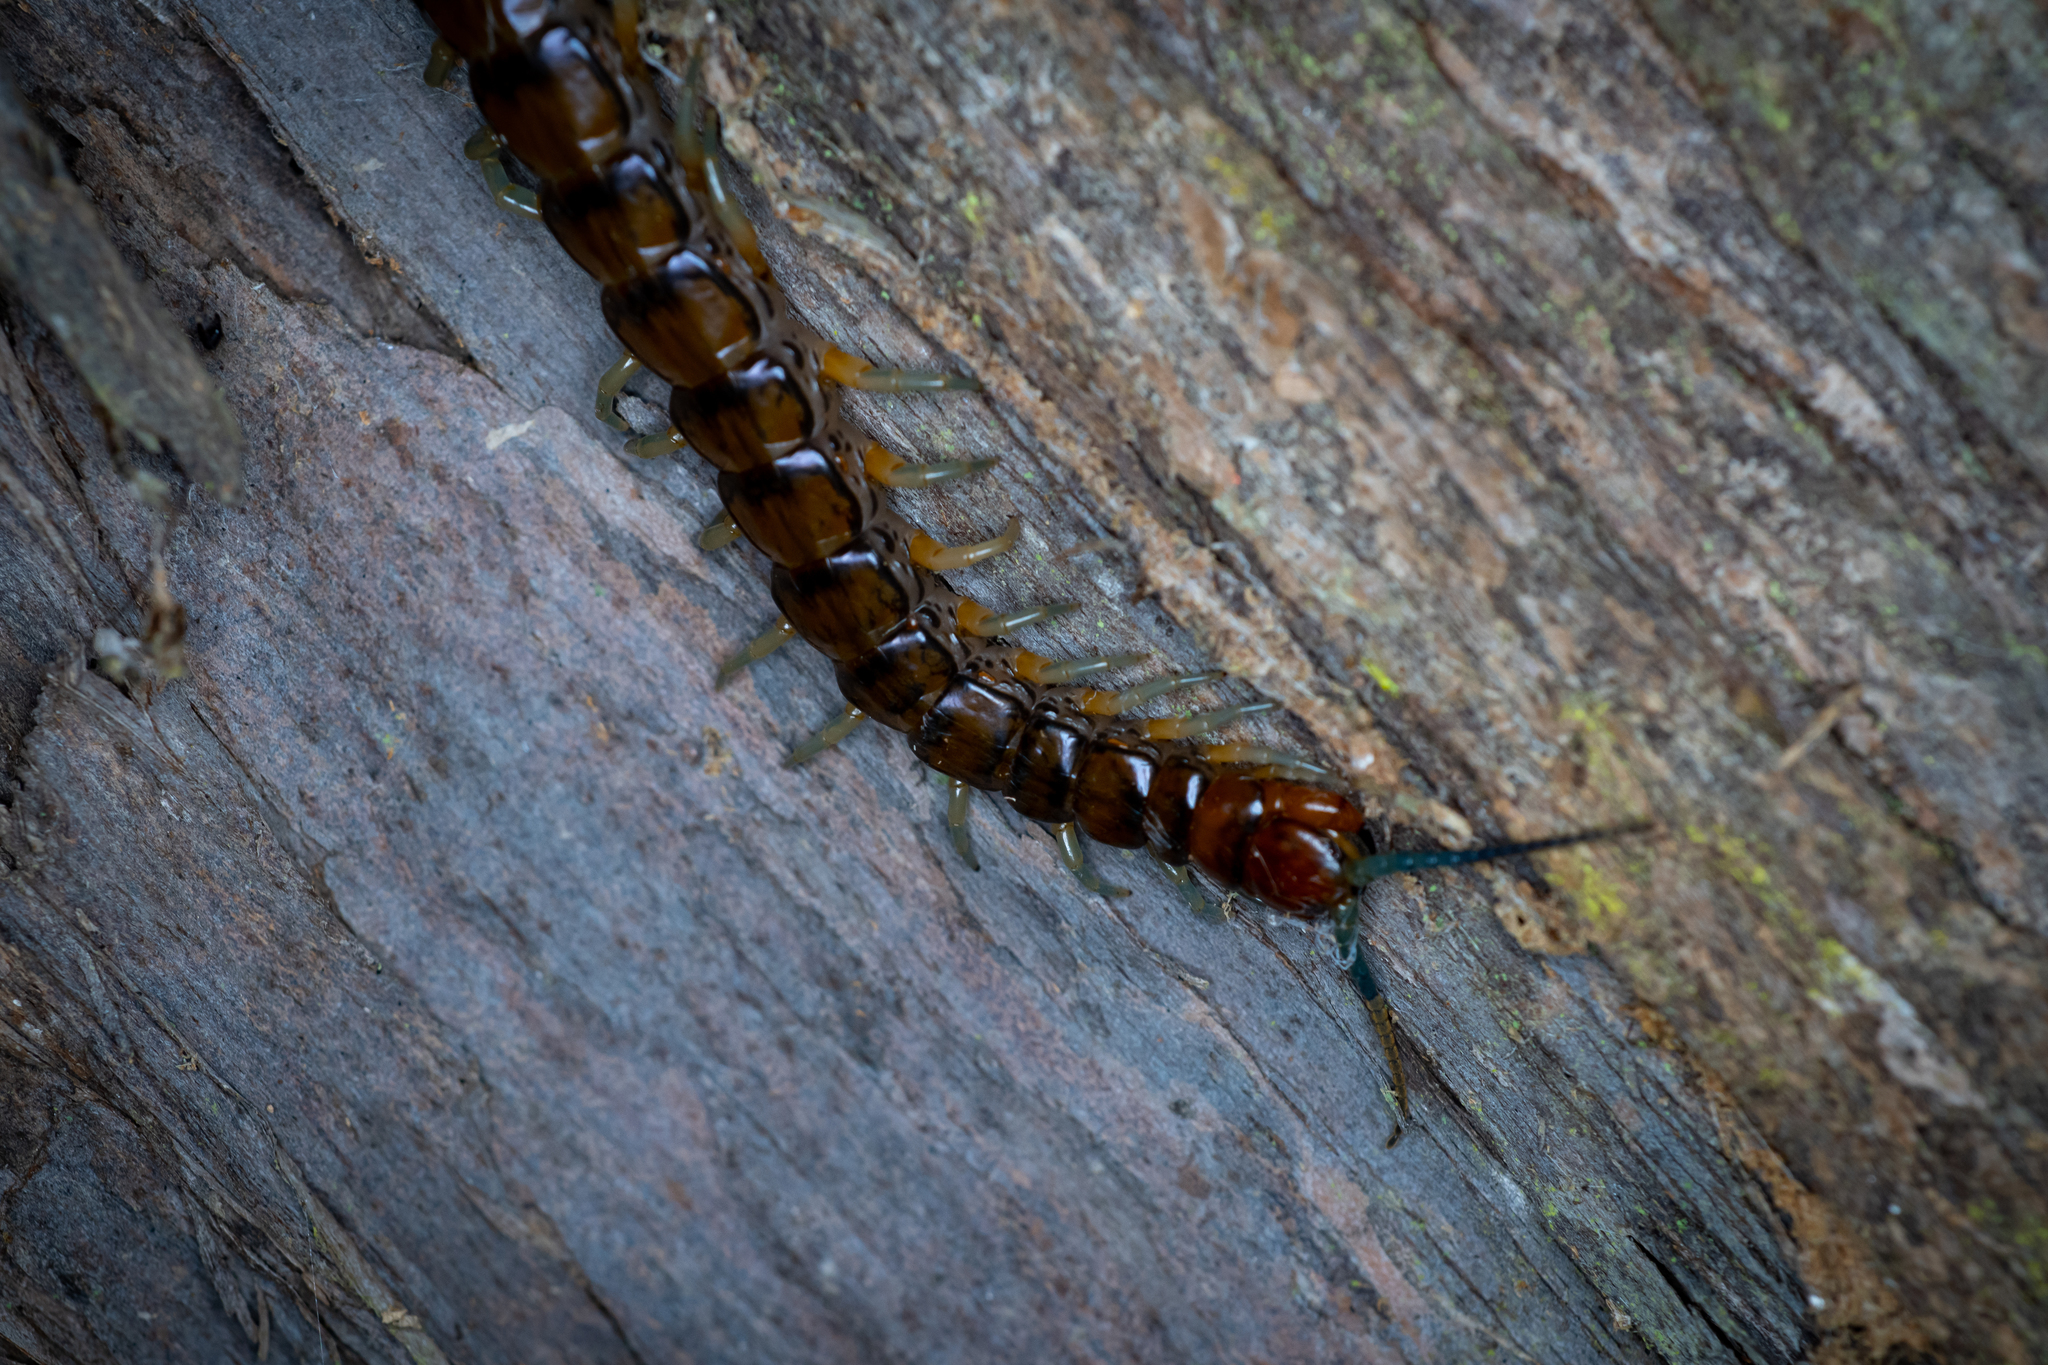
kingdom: Animalia
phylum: Arthropoda
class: Chilopoda
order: Scolopendromorpha
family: Scolopendridae
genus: Cormocephalus
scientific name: Cormocephalus rubriceps
